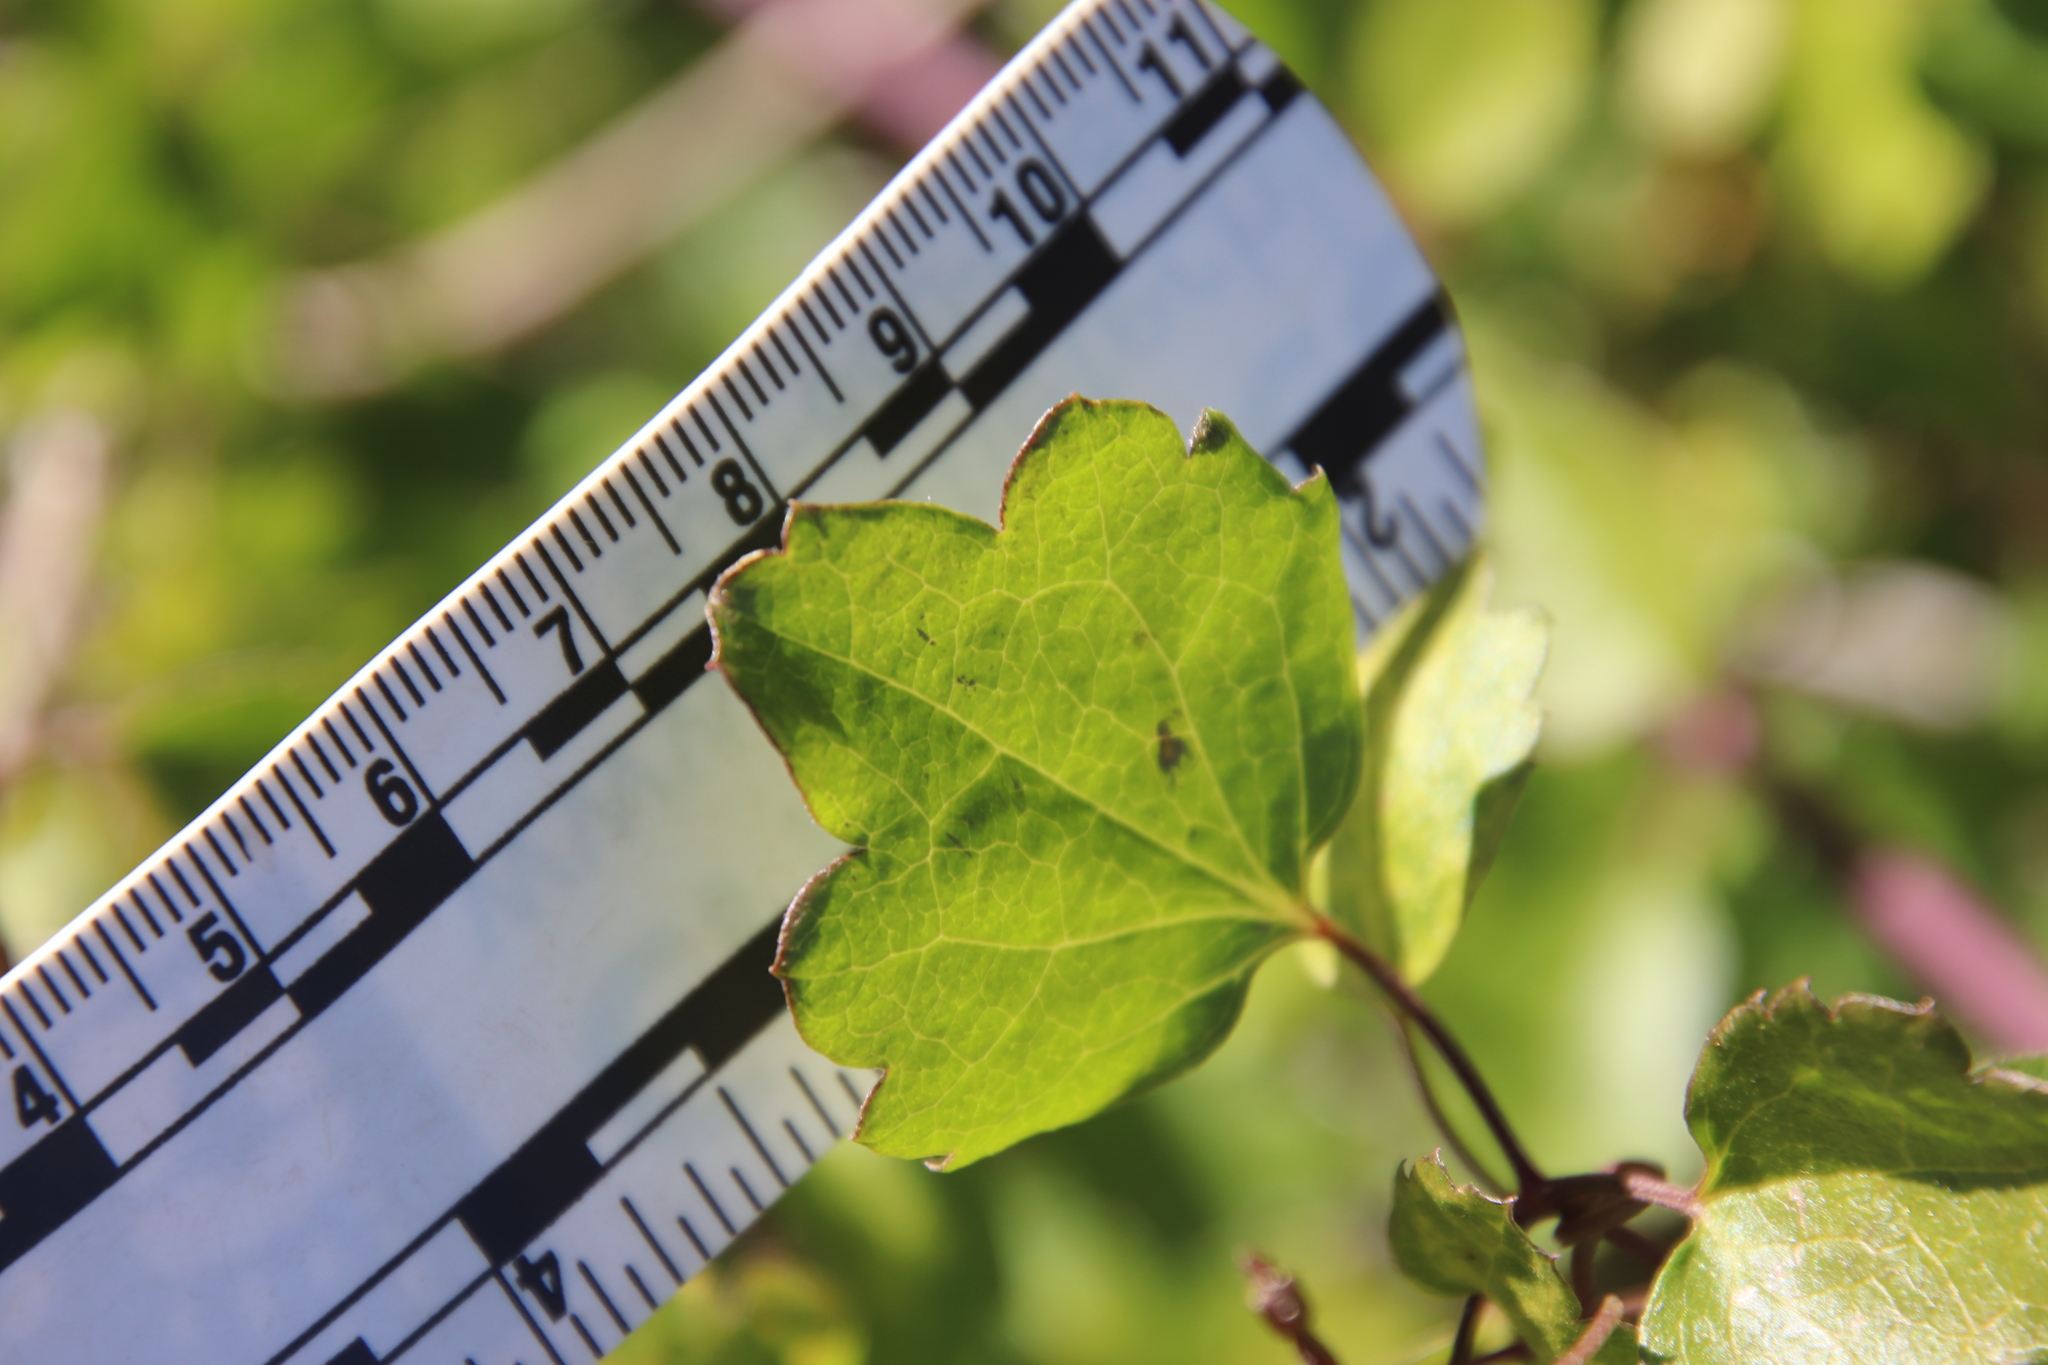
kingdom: Plantae
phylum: Tracheophyta
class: Magnoliopsida
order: Ranunculales
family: Ranunculaceae
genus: Clematis
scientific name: Clematis pauciflora
